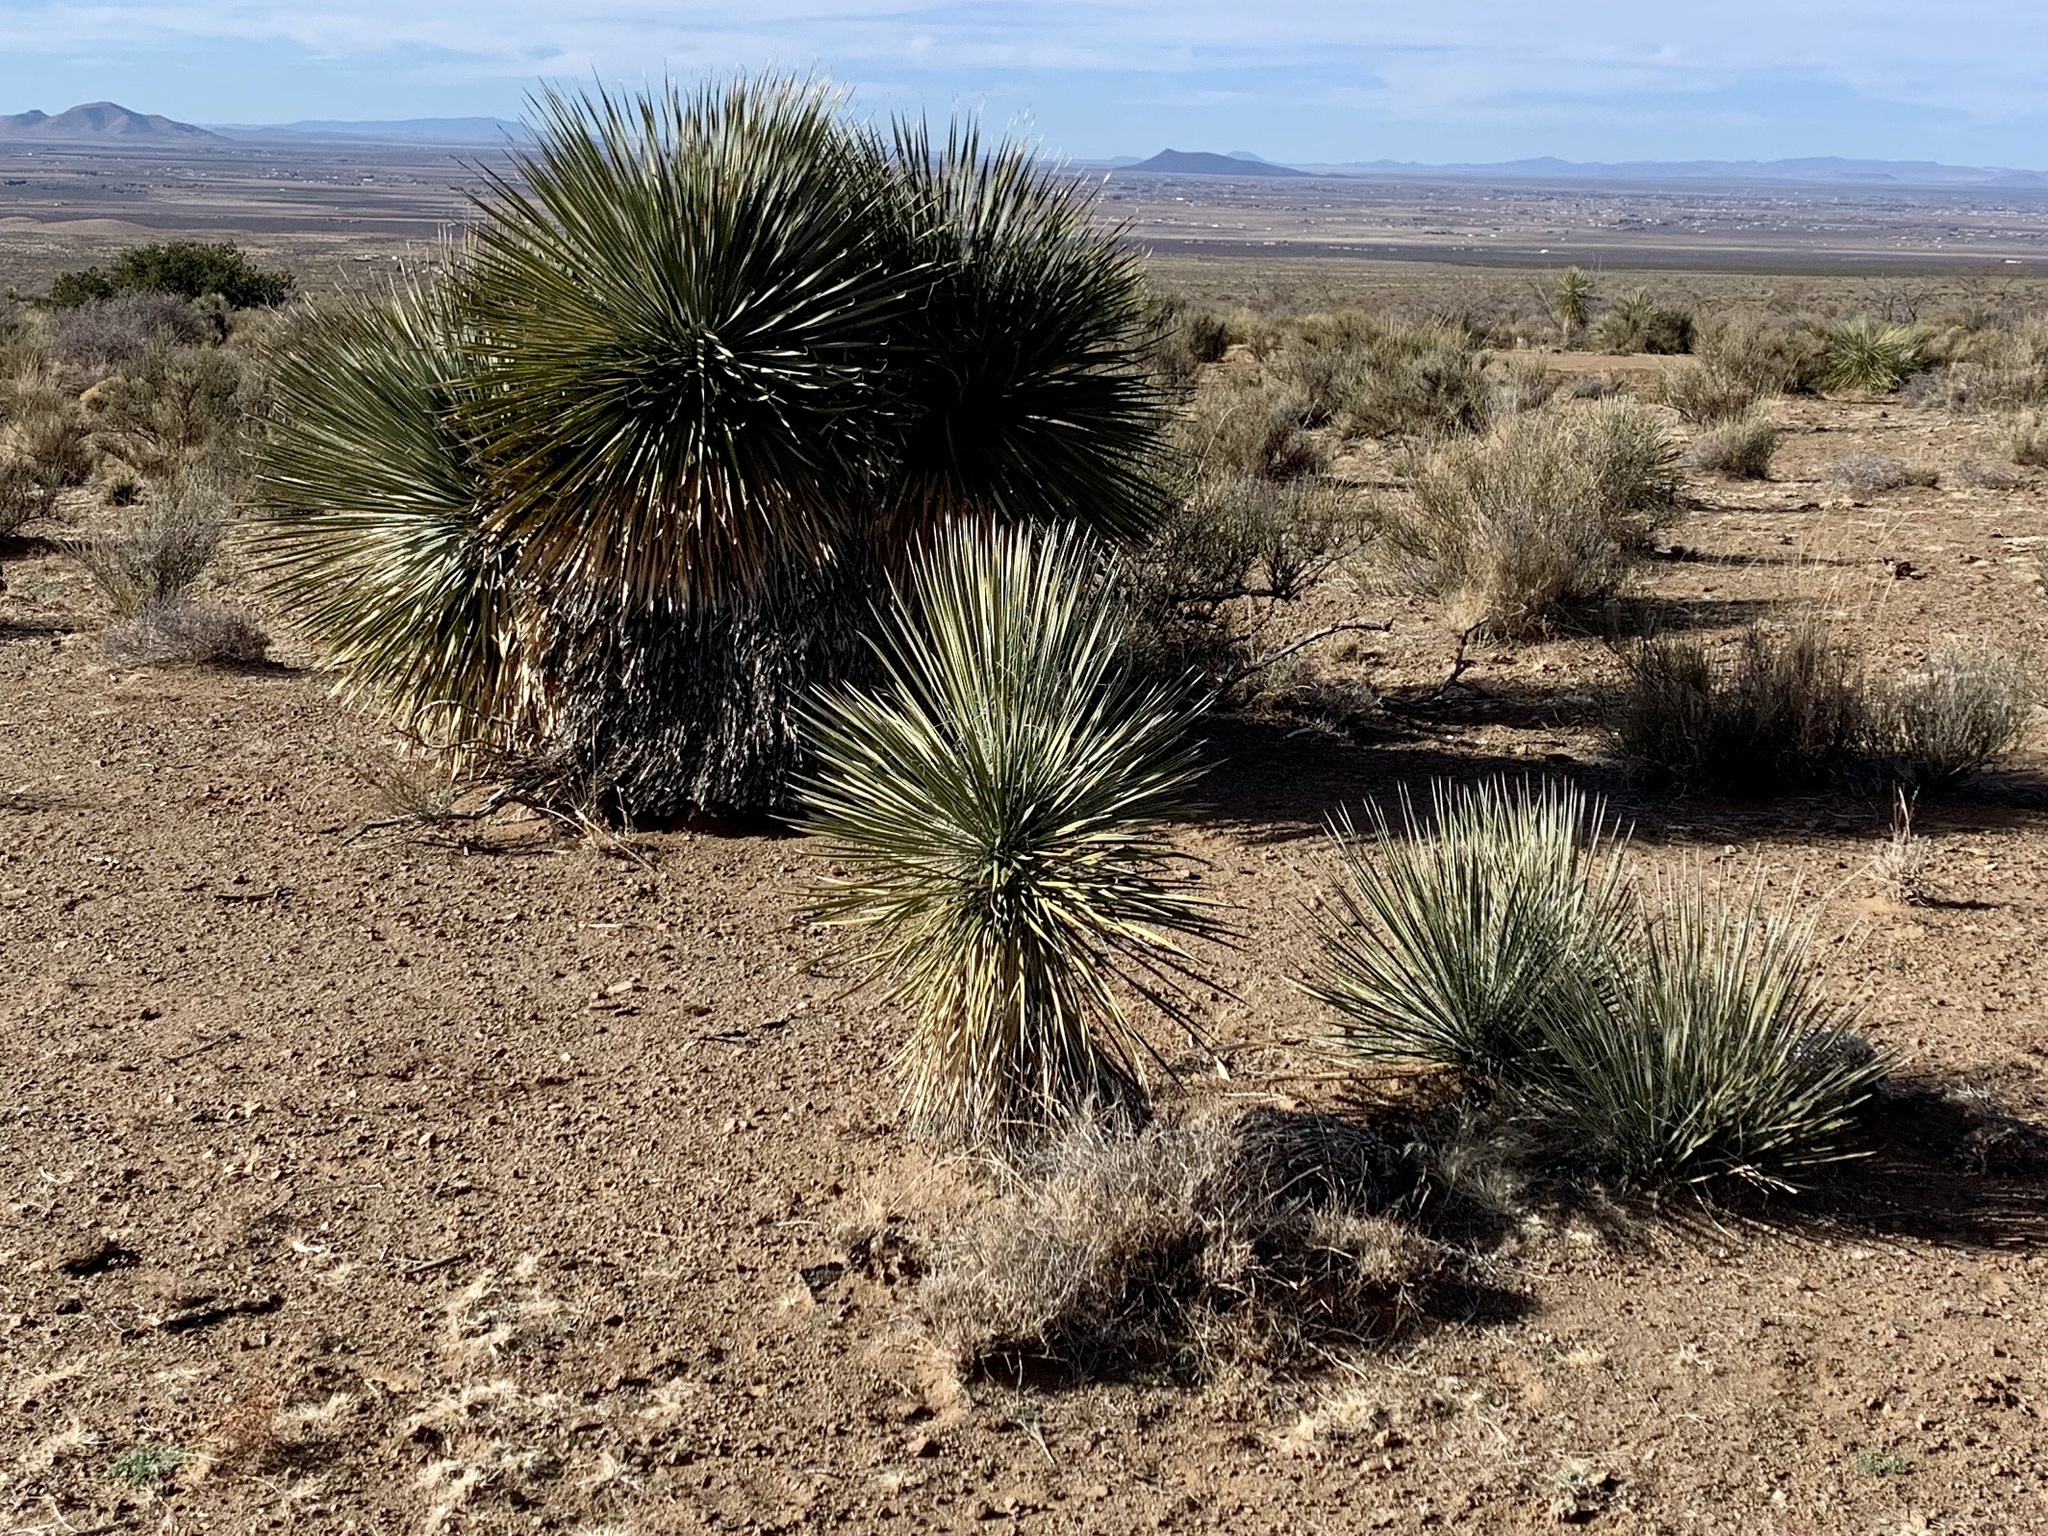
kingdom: Plantae
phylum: Tracheophyta
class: Liliopsida
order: Asparagales
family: Asparagaceae
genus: Yucca
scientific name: Yucca elata
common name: Palmella
